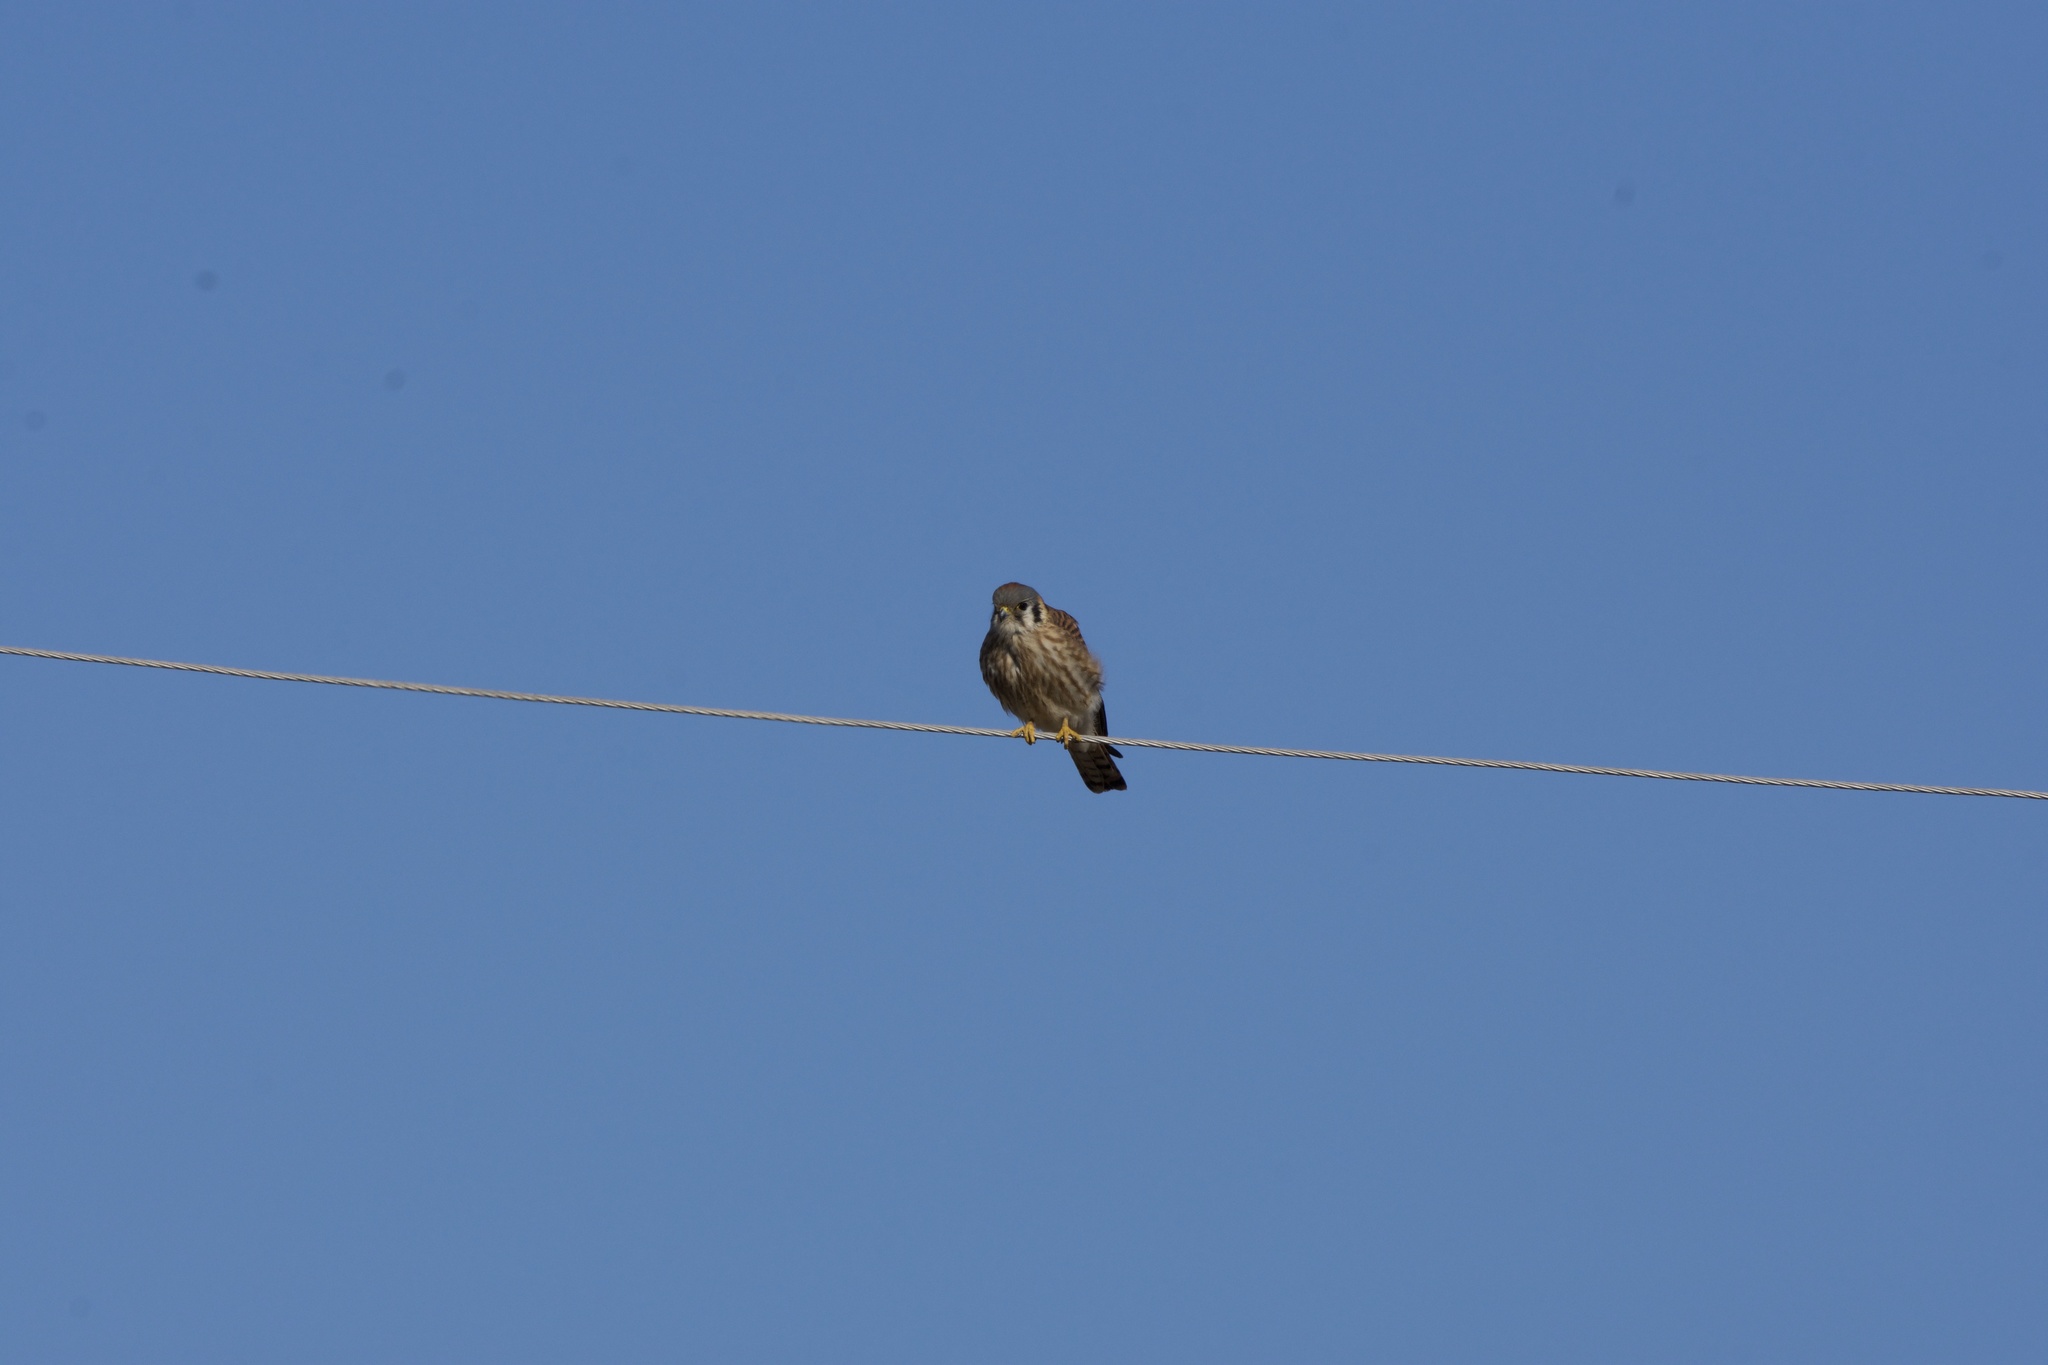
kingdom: Animalia
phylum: Chordata
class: Aves
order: Falconiformes
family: Falconidae
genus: Falco
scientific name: Falco sparverius
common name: American kestrel
